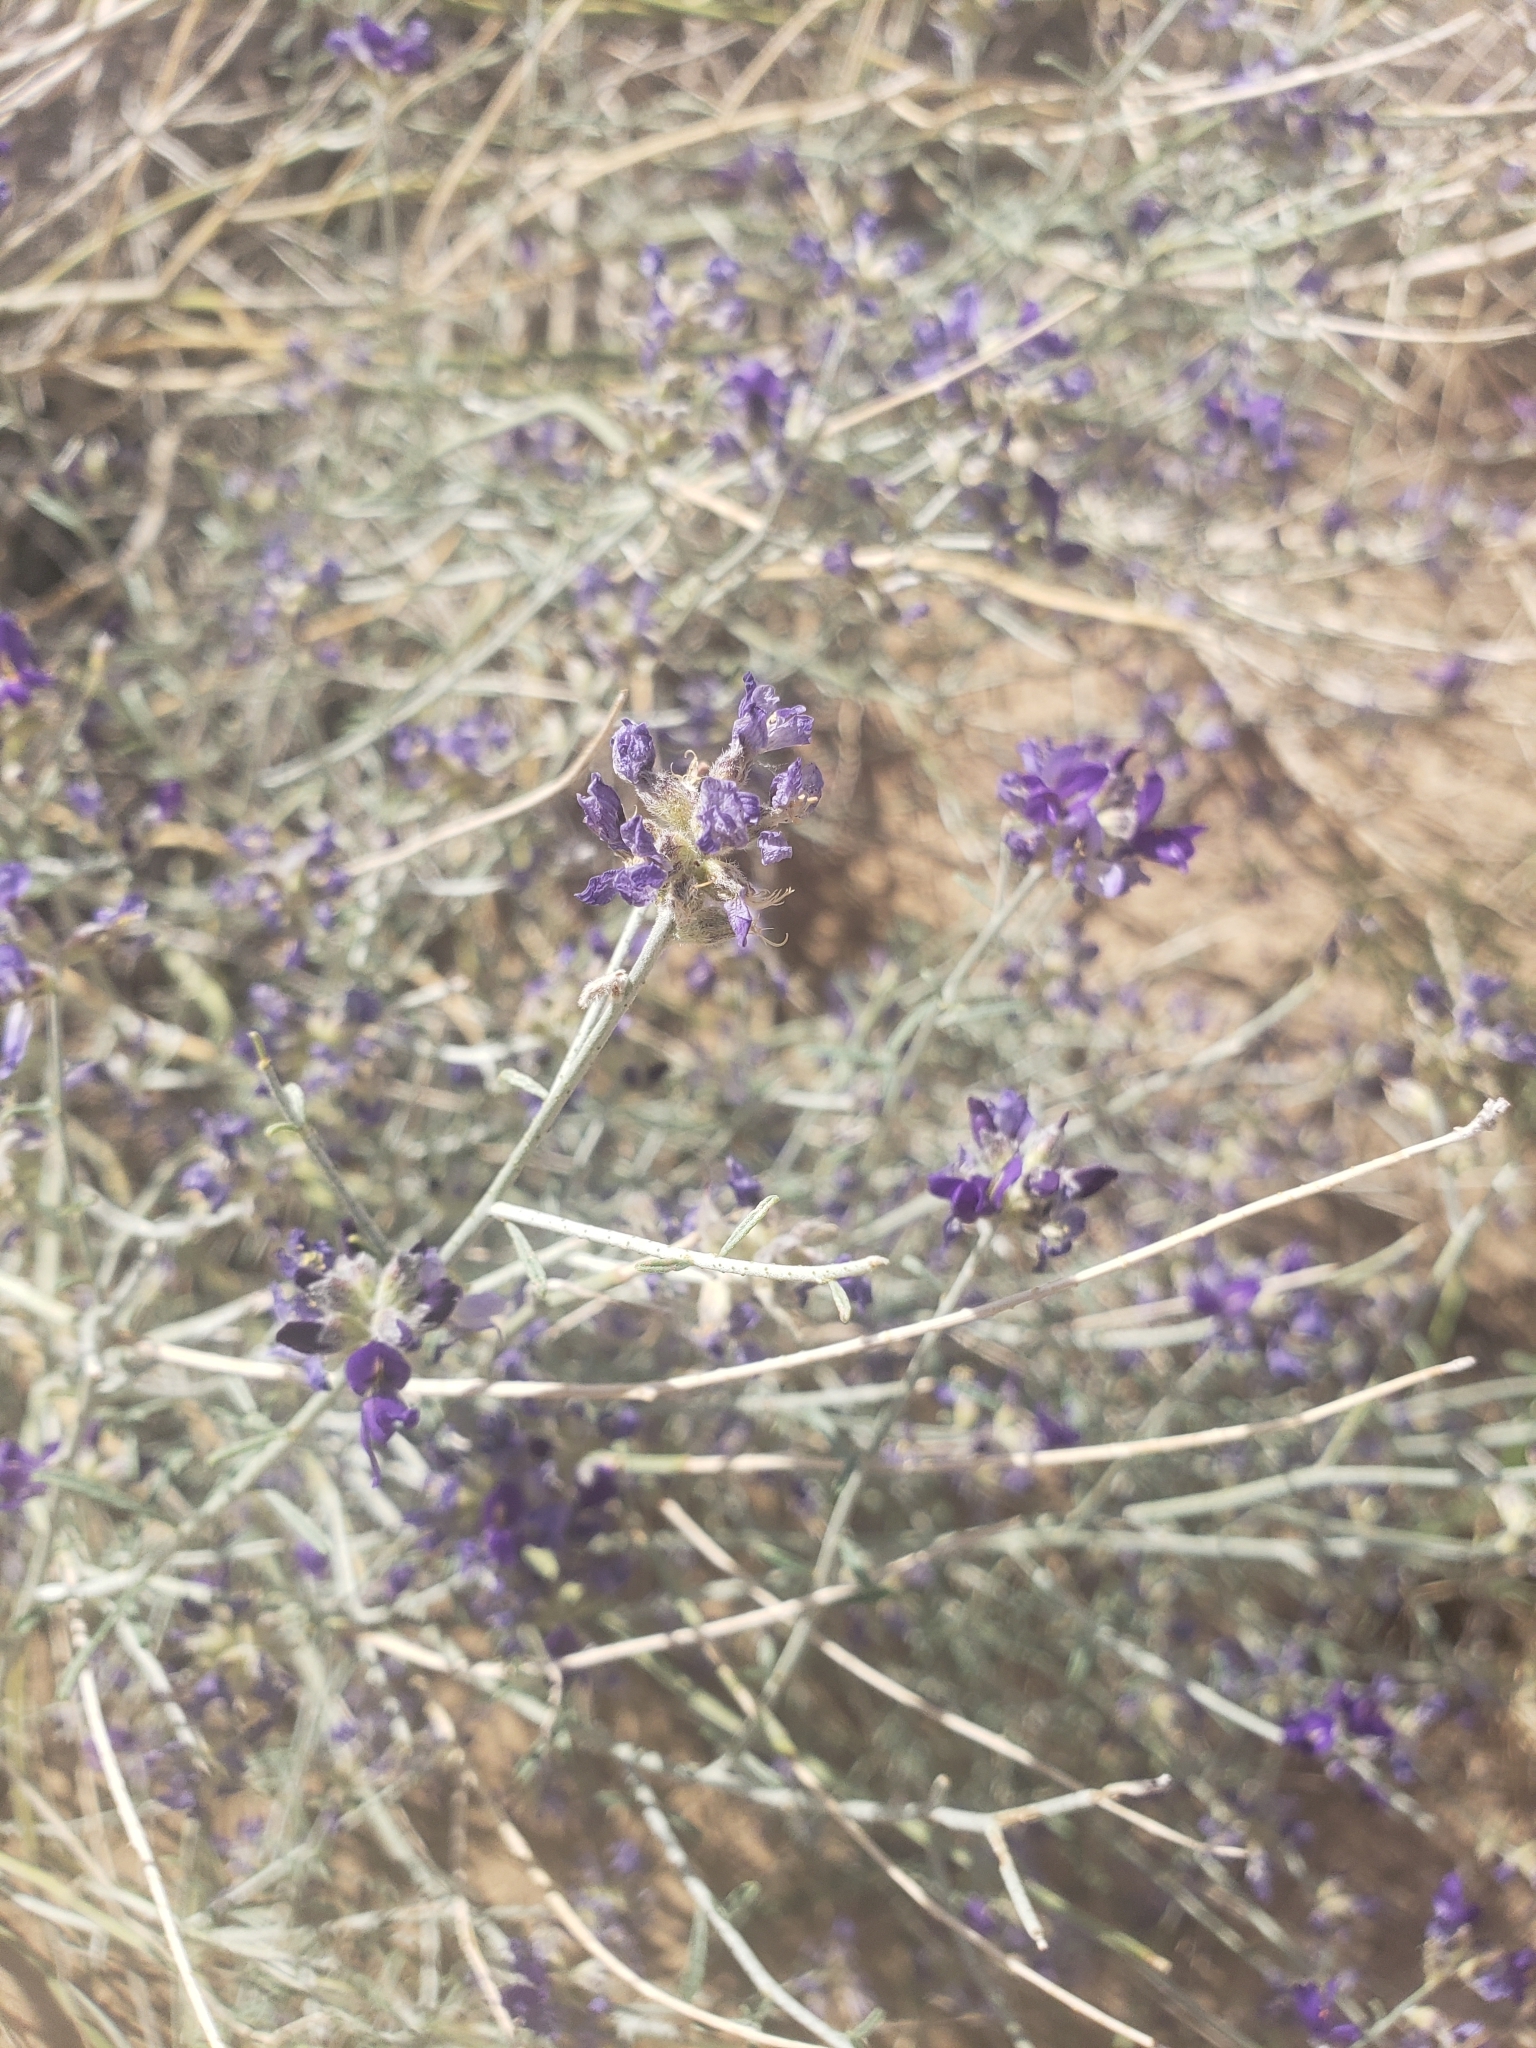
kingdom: Plantae
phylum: Tracheophyta
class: Magnoliopsida
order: Fabales
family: Fabaceae
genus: Psorothamnus
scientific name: Psorothamnus scoparius
